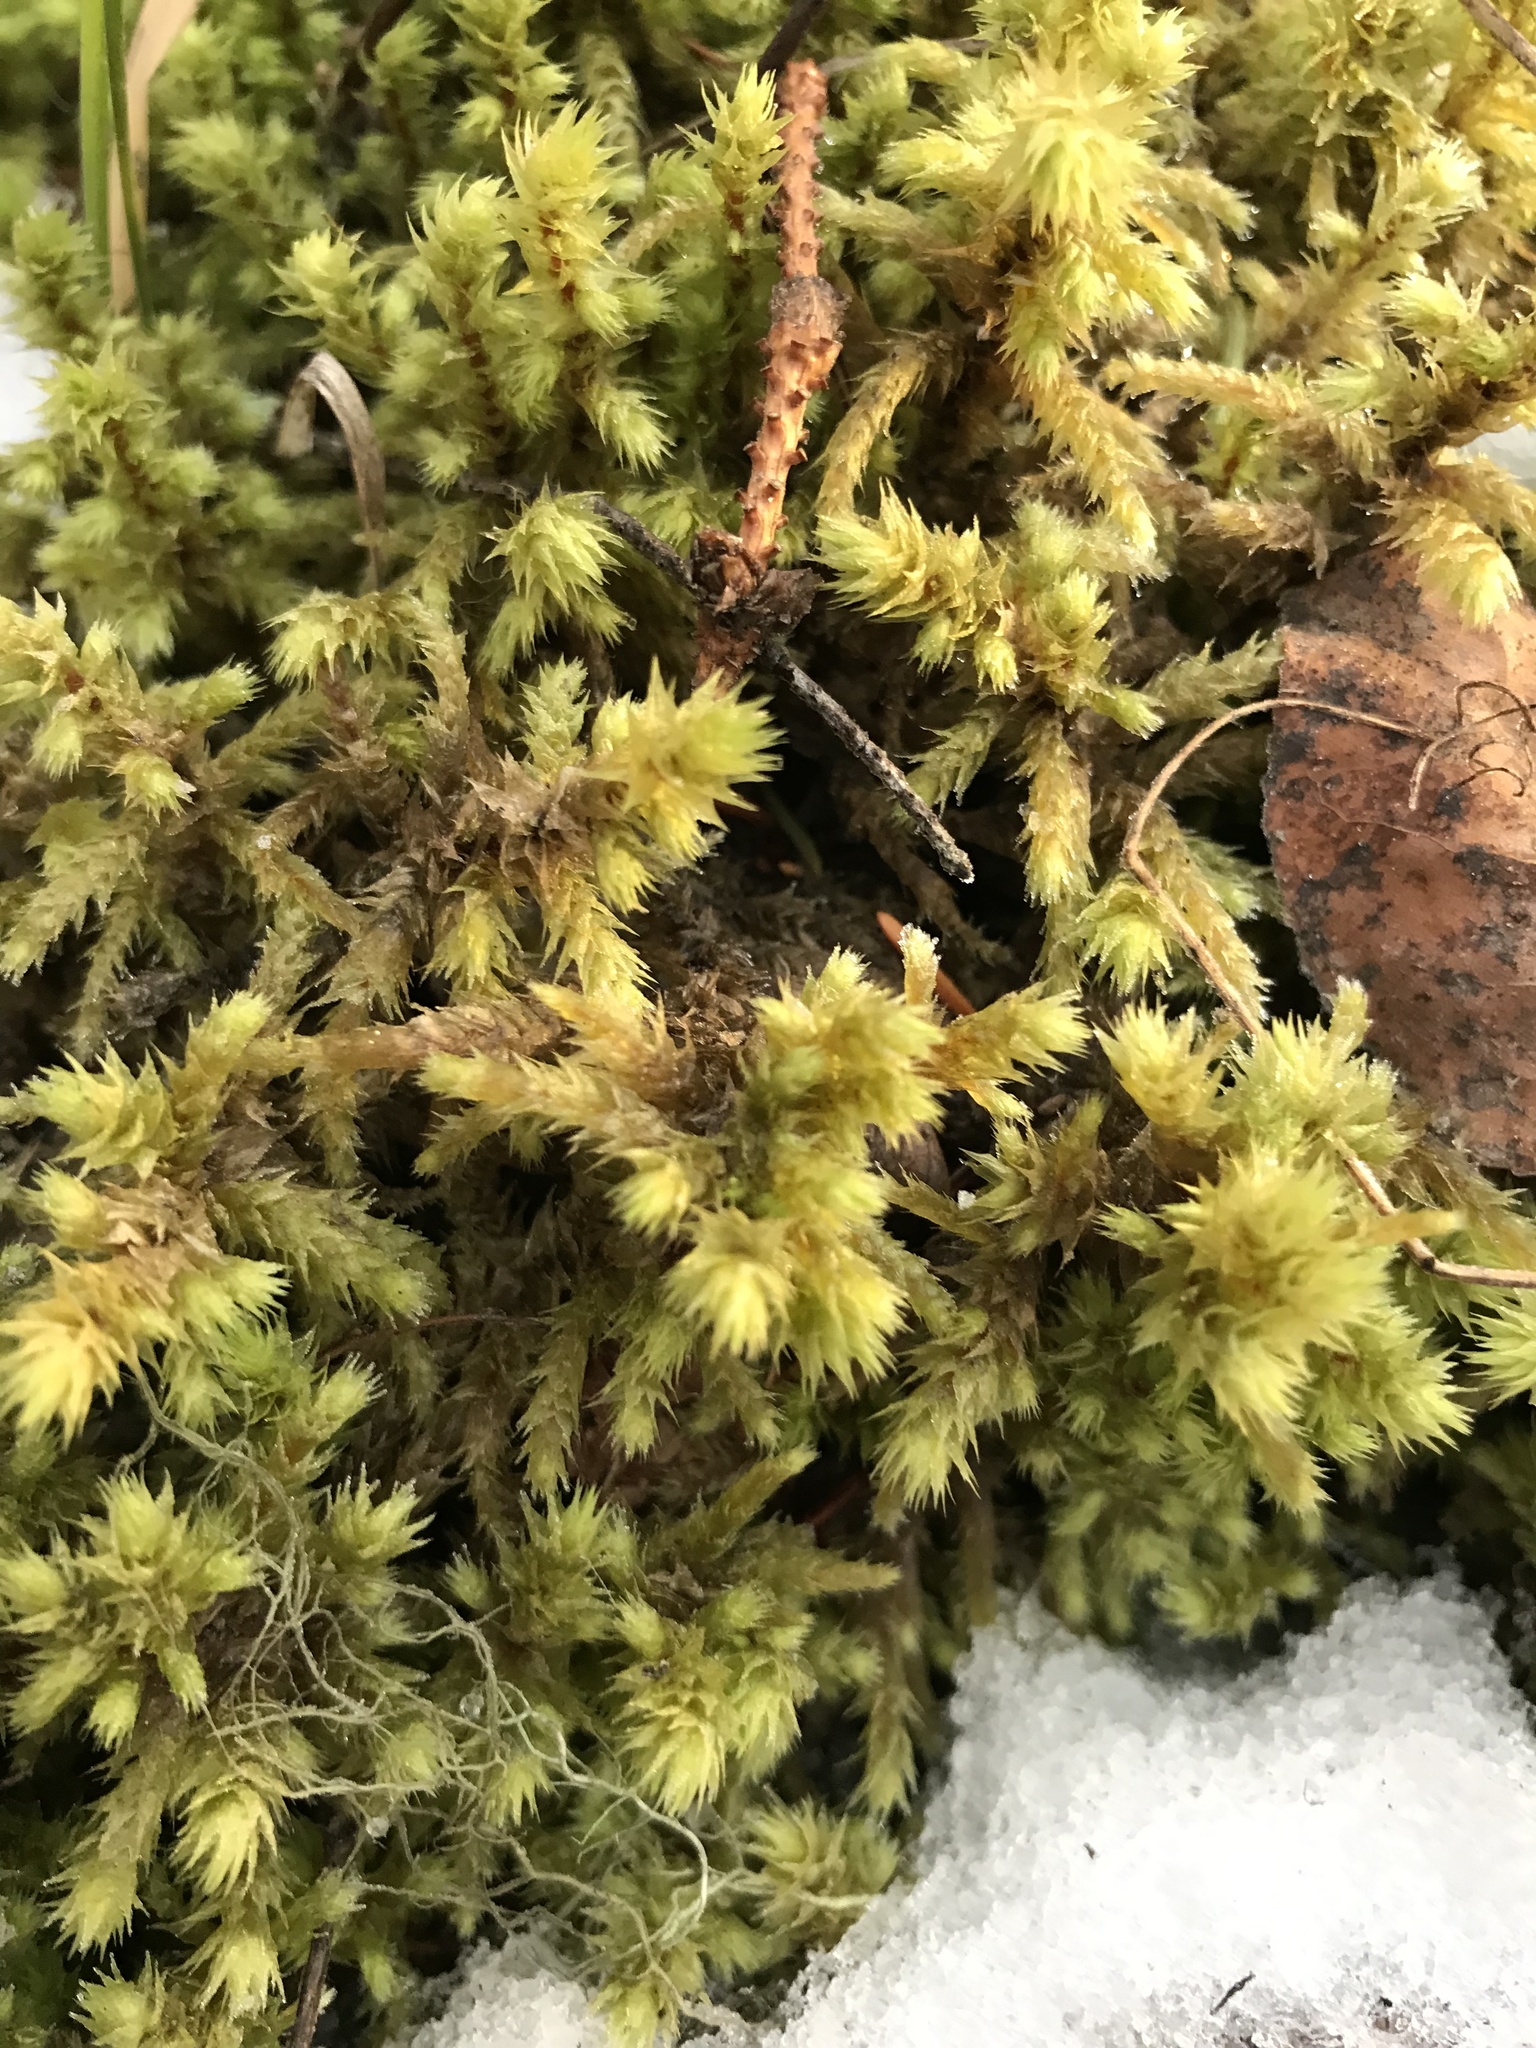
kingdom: Plantae
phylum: Bryophyta
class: Bryopsida
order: Hypnales
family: Hylocomiaceae
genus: Hylocomiadelphus
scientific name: Hylocomiadelphus triquetrus
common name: Rough goose neck moss
